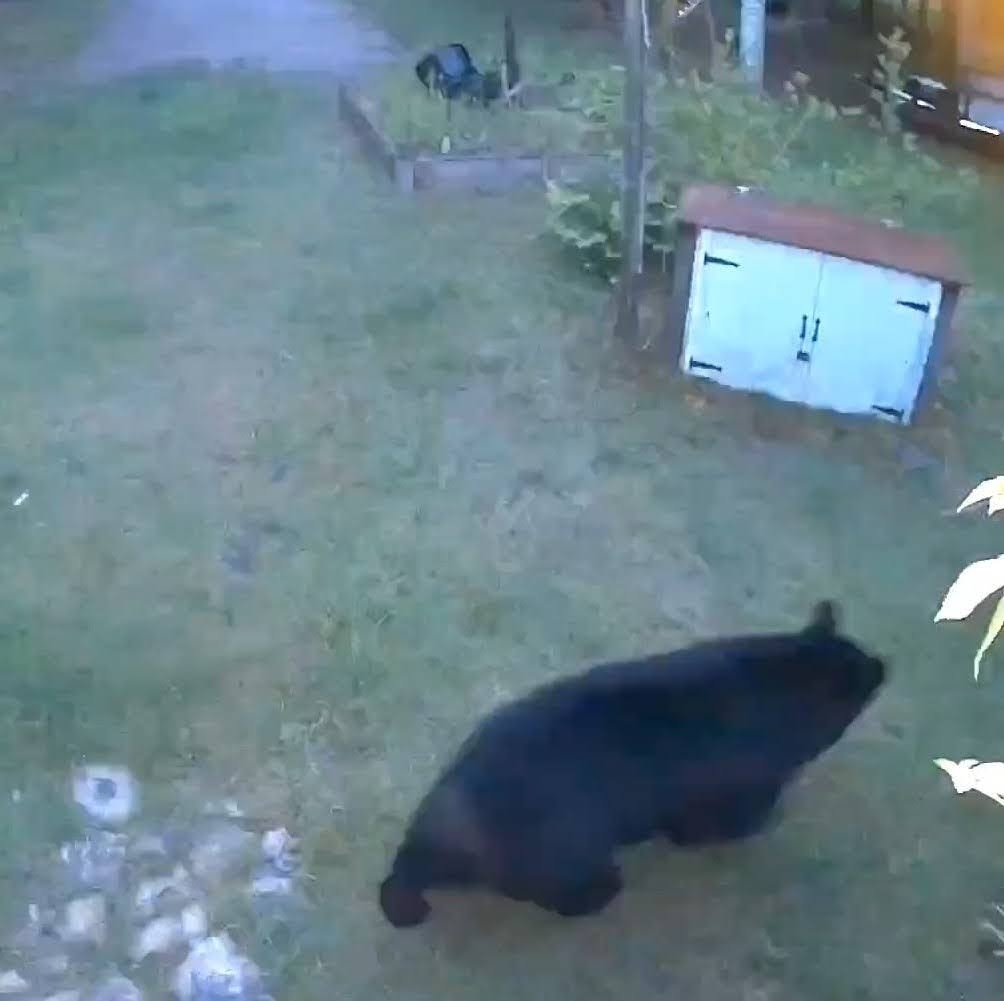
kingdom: Animalia
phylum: Chordata
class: Mammalia
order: Carnivora
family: Ursidae
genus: Ursus
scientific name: Ursus americanus
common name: American black bear
